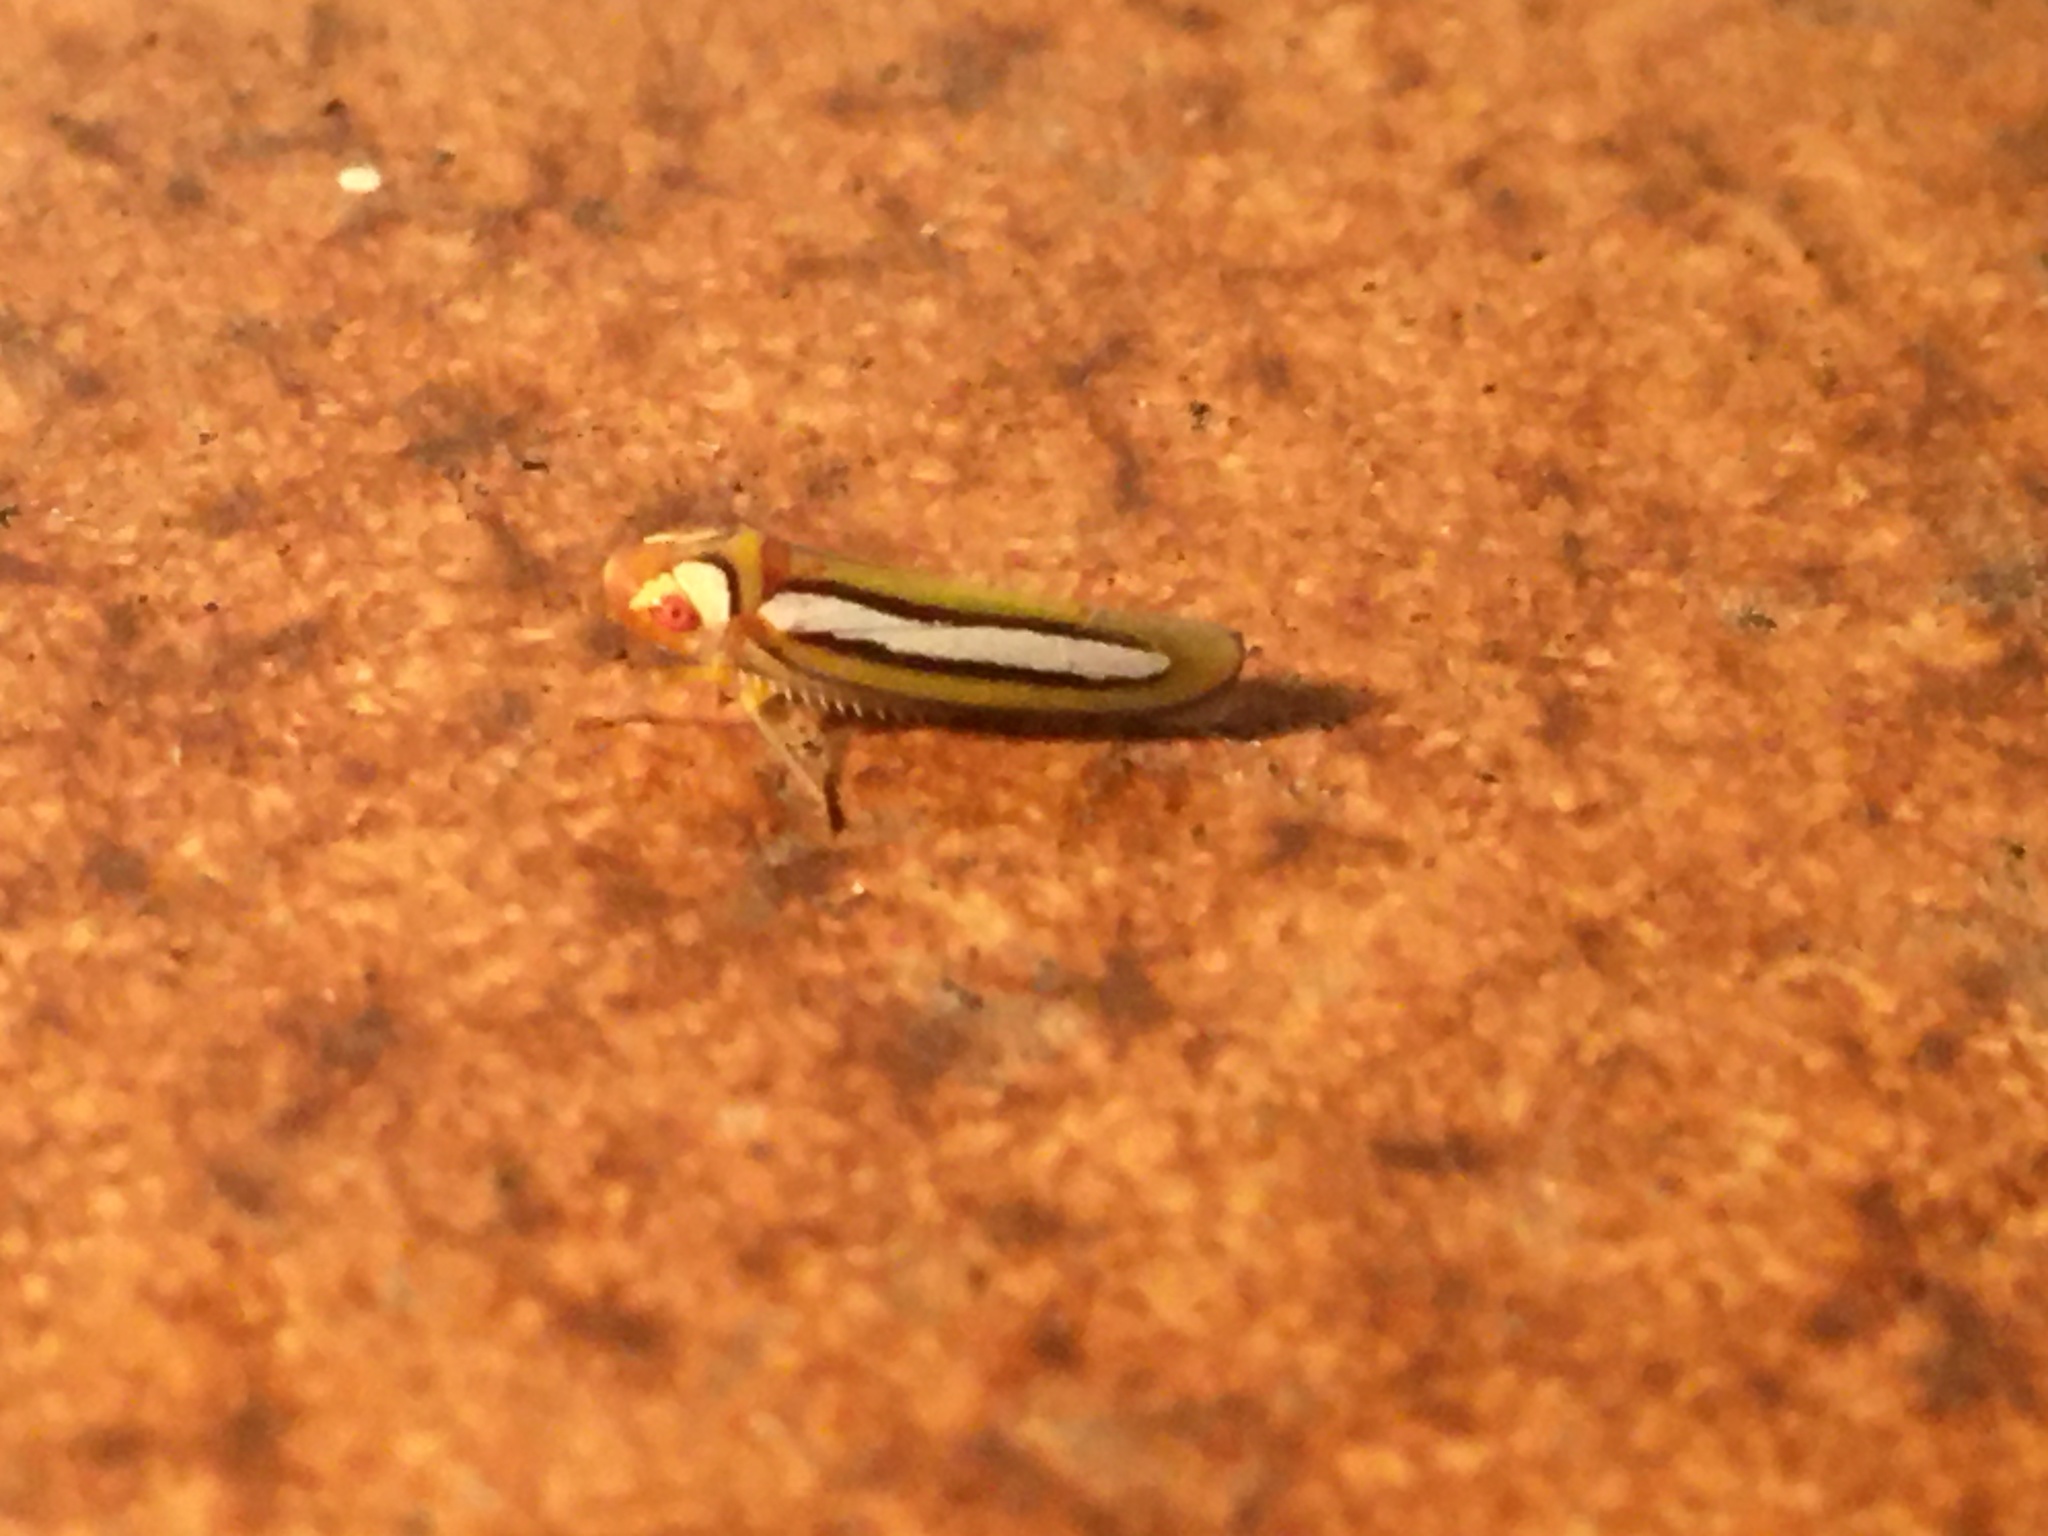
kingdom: Animalia
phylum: Arthropoda
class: Insecta
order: Hemiptera
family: Cicadellidae
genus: Graphocephala
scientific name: Graphocephala lucasii
